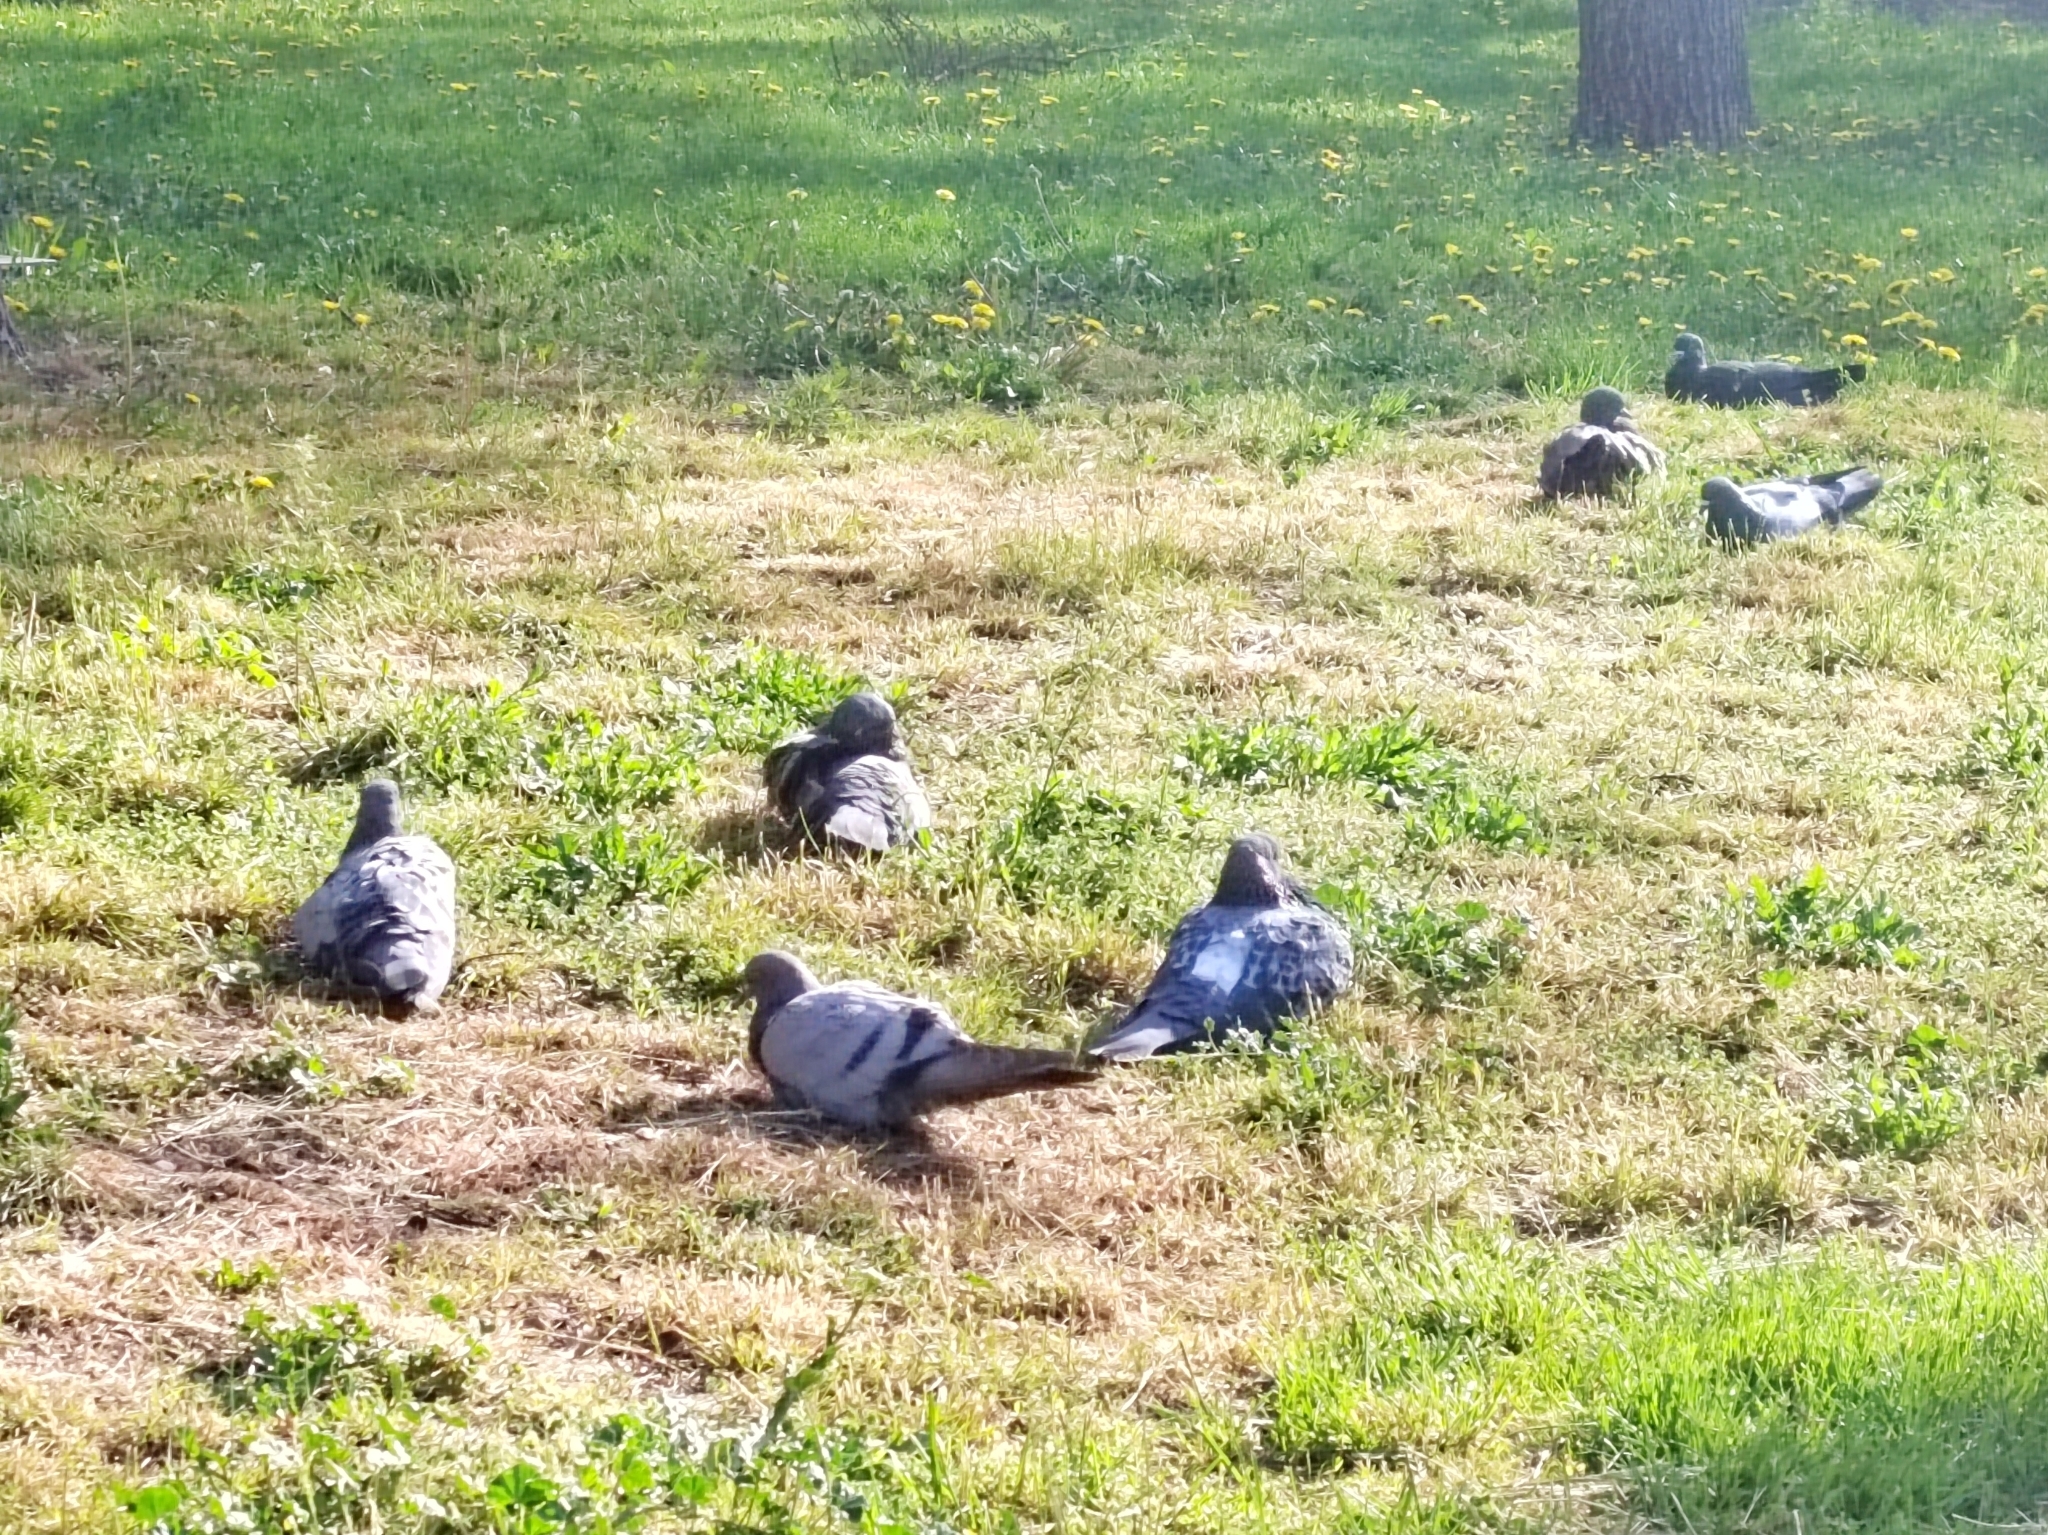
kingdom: Animalia
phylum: Chordata
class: Aves
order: Columbiformes
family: Columbidae
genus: Columba
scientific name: Columba livia
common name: Rock pigeon
